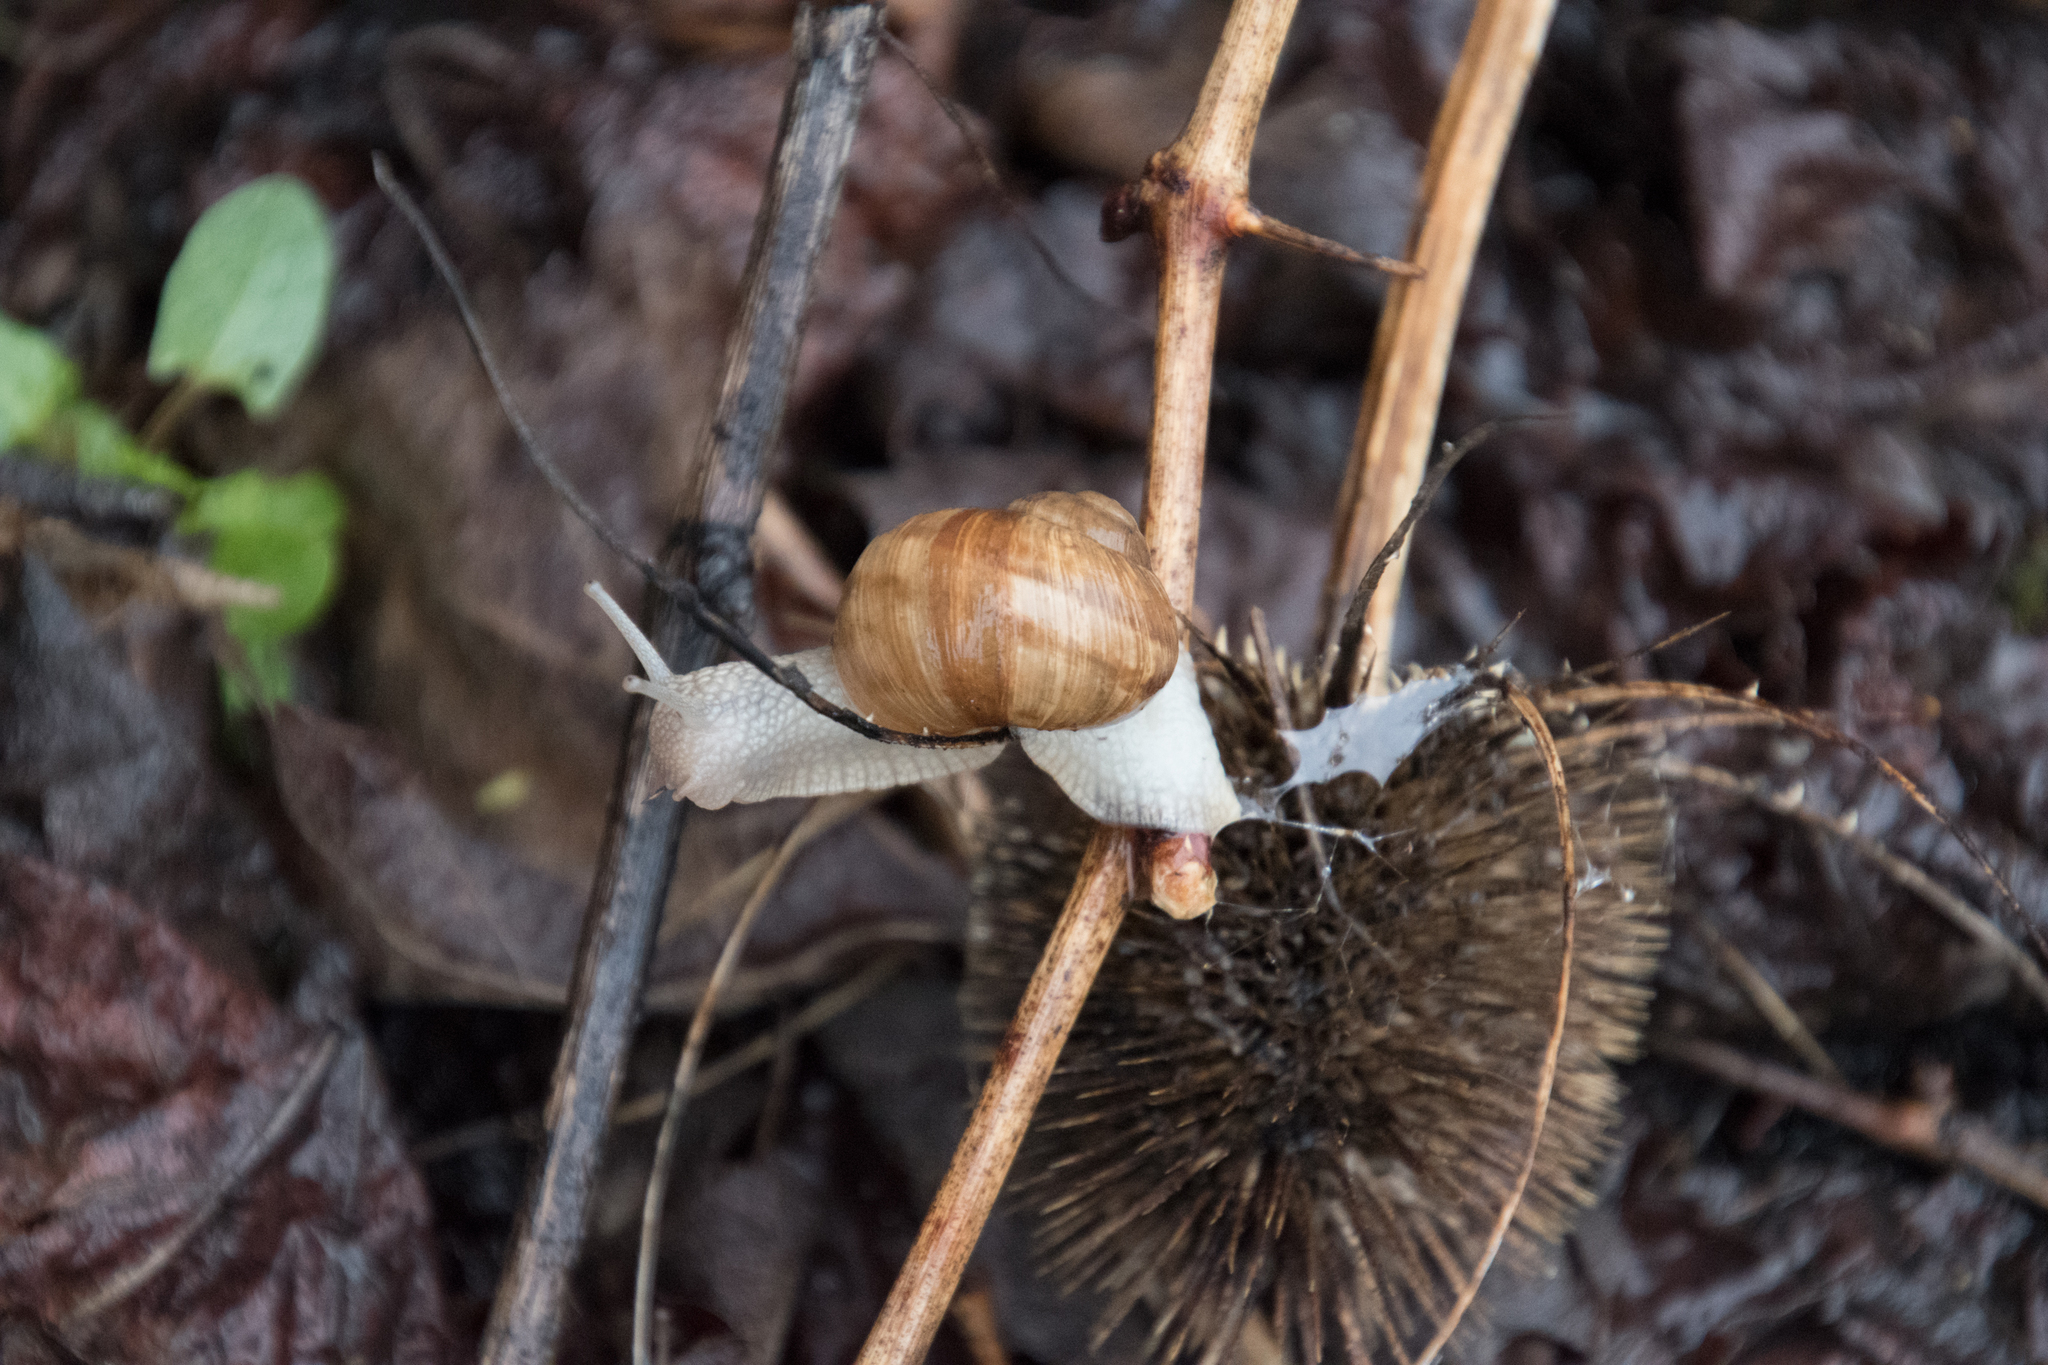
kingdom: Animalia
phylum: Mollusca
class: Gastropoda
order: Stylommatophora
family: Helicidae
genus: Helix
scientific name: Helix pomatia
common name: Roman snail
